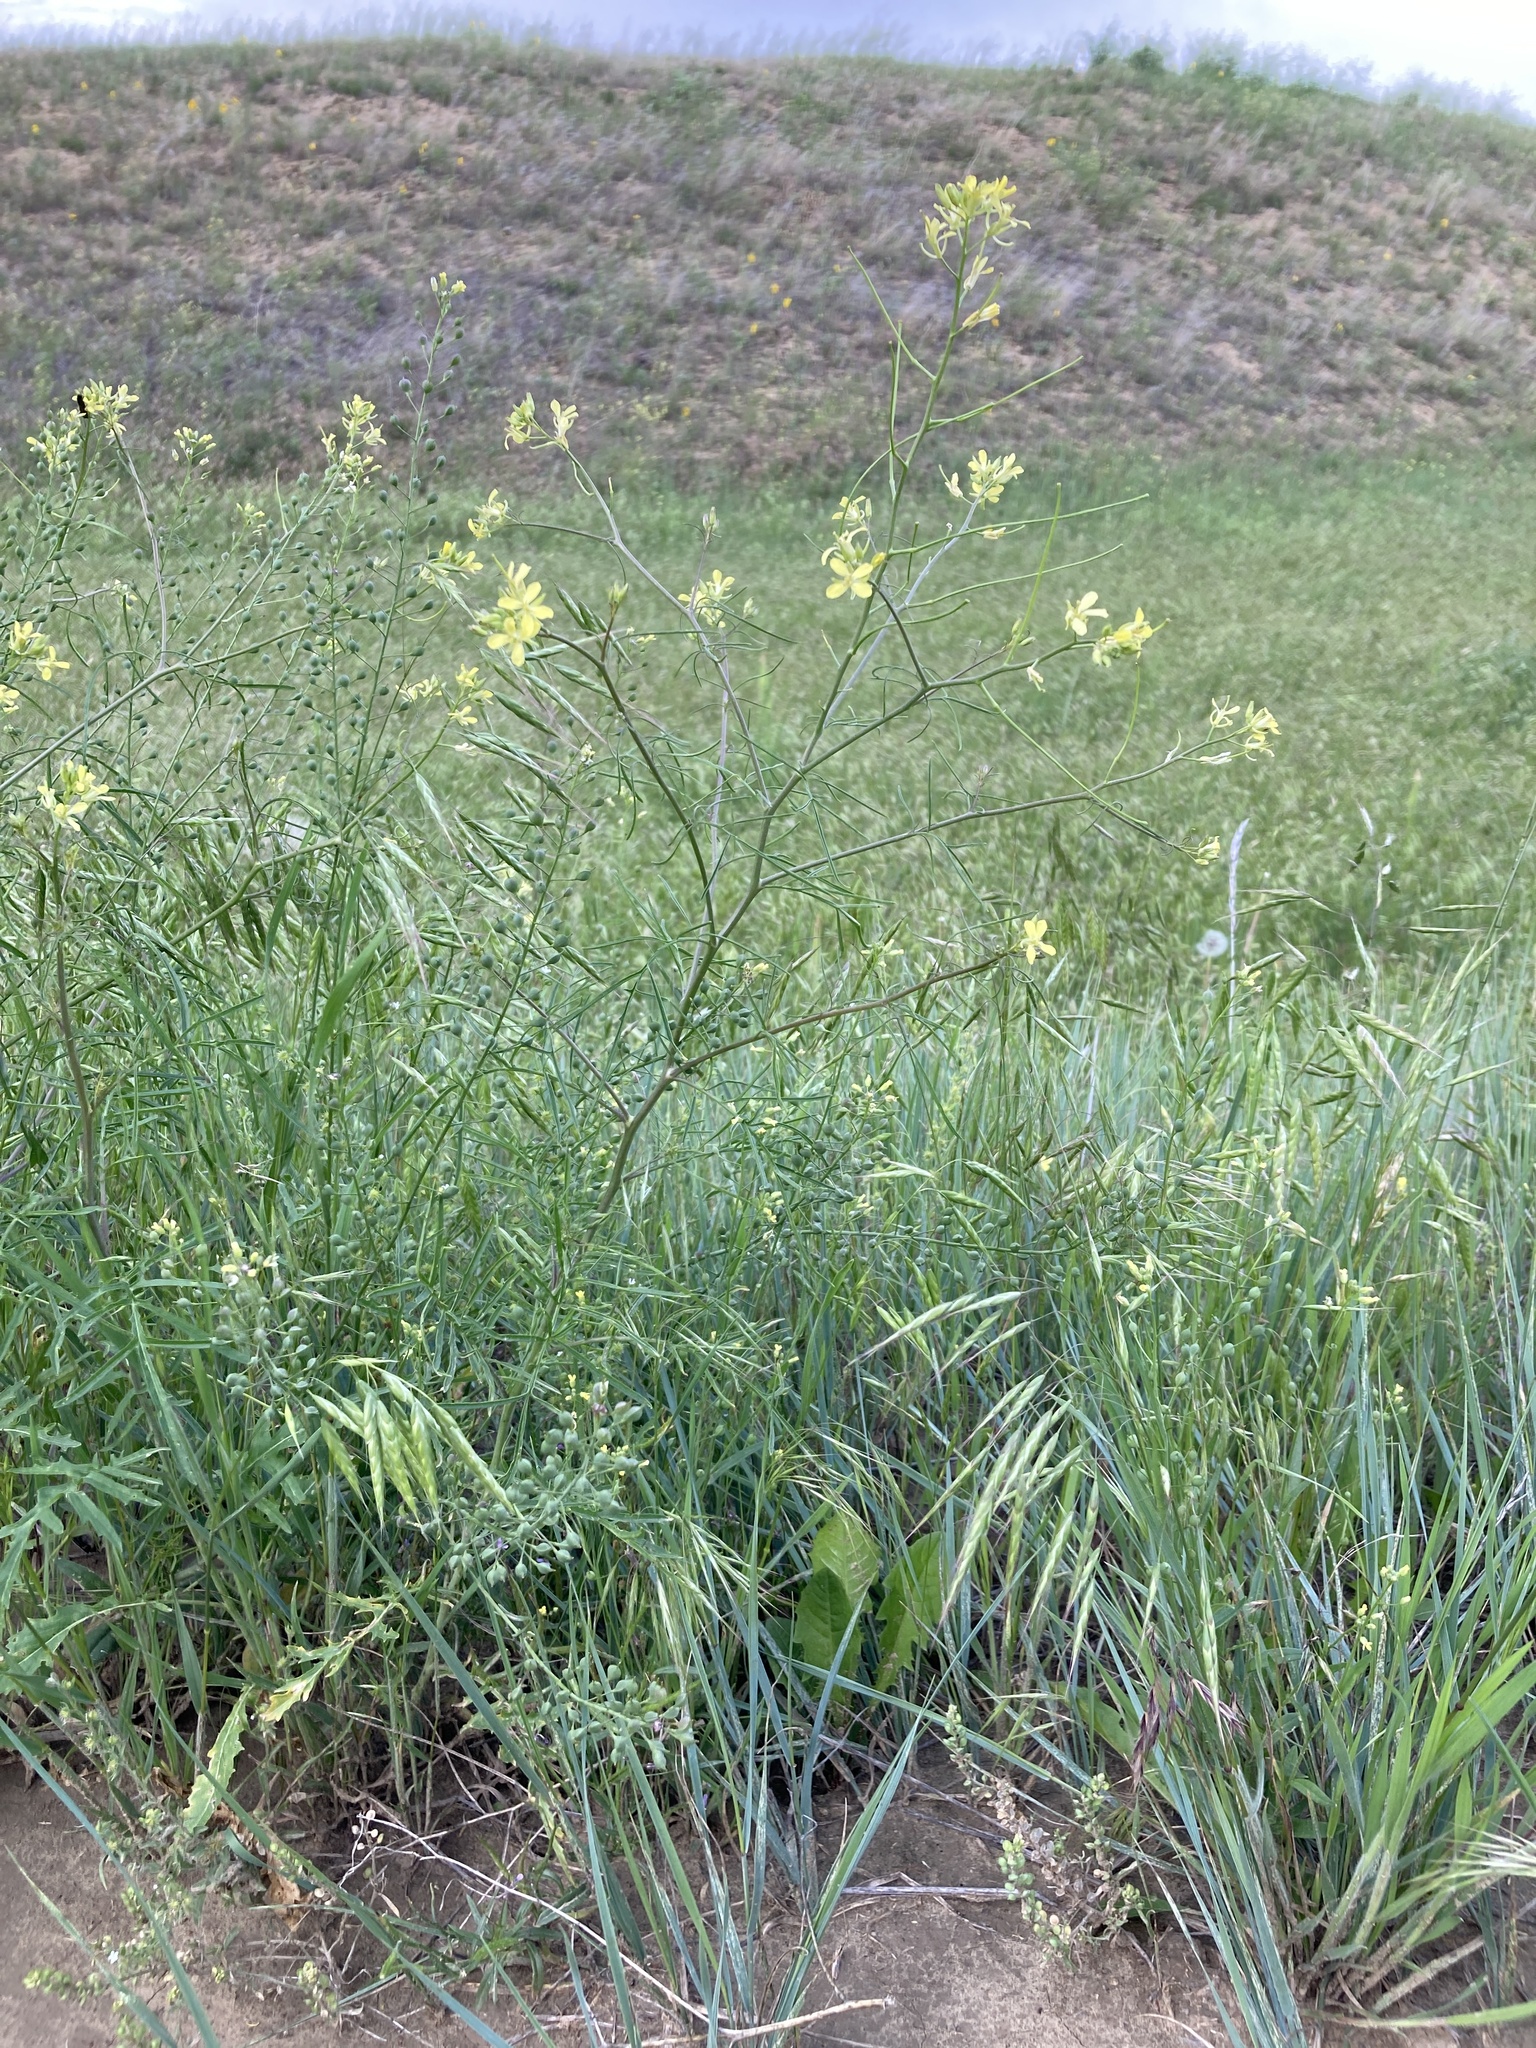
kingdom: Plantae
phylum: Tracheophyta
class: Magnoliopsida
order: Brassicales
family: Brassicaceae
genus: Sisymbrium
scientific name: Sisymbrium altissimum
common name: Tall rocket
